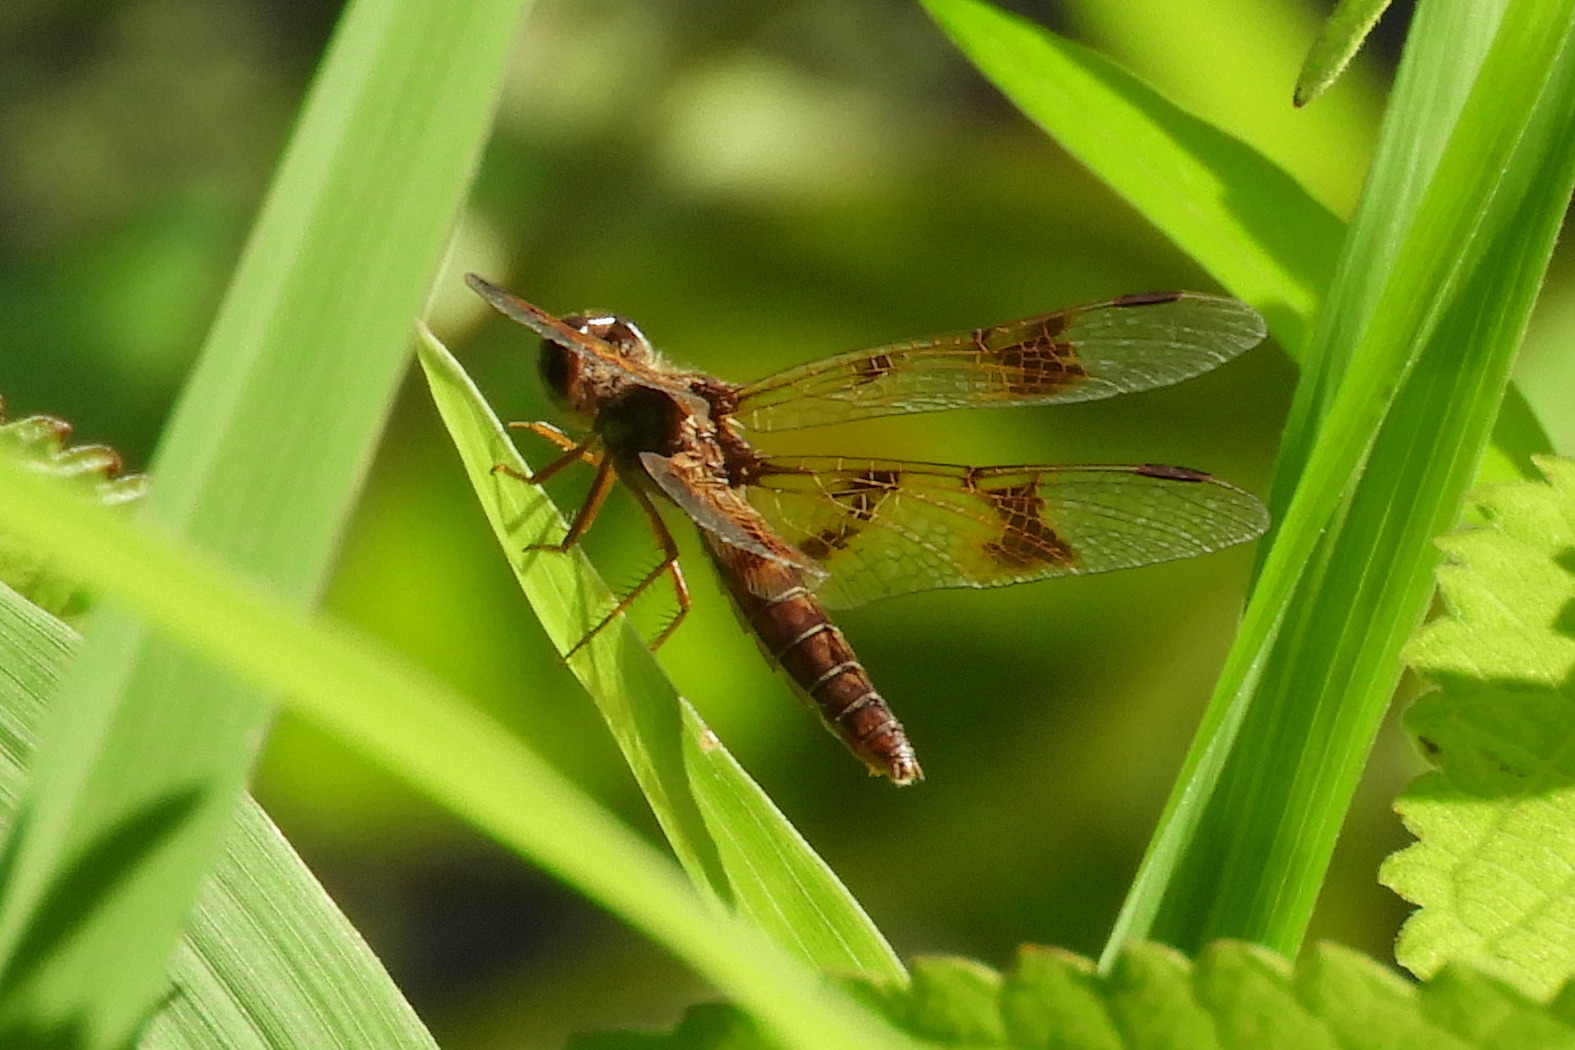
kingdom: Animalia
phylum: Arthropoda
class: Insecta
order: Odonata
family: Libellulidae
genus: Perithemis
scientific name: Perithemis tenera
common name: Eastern amberwing
